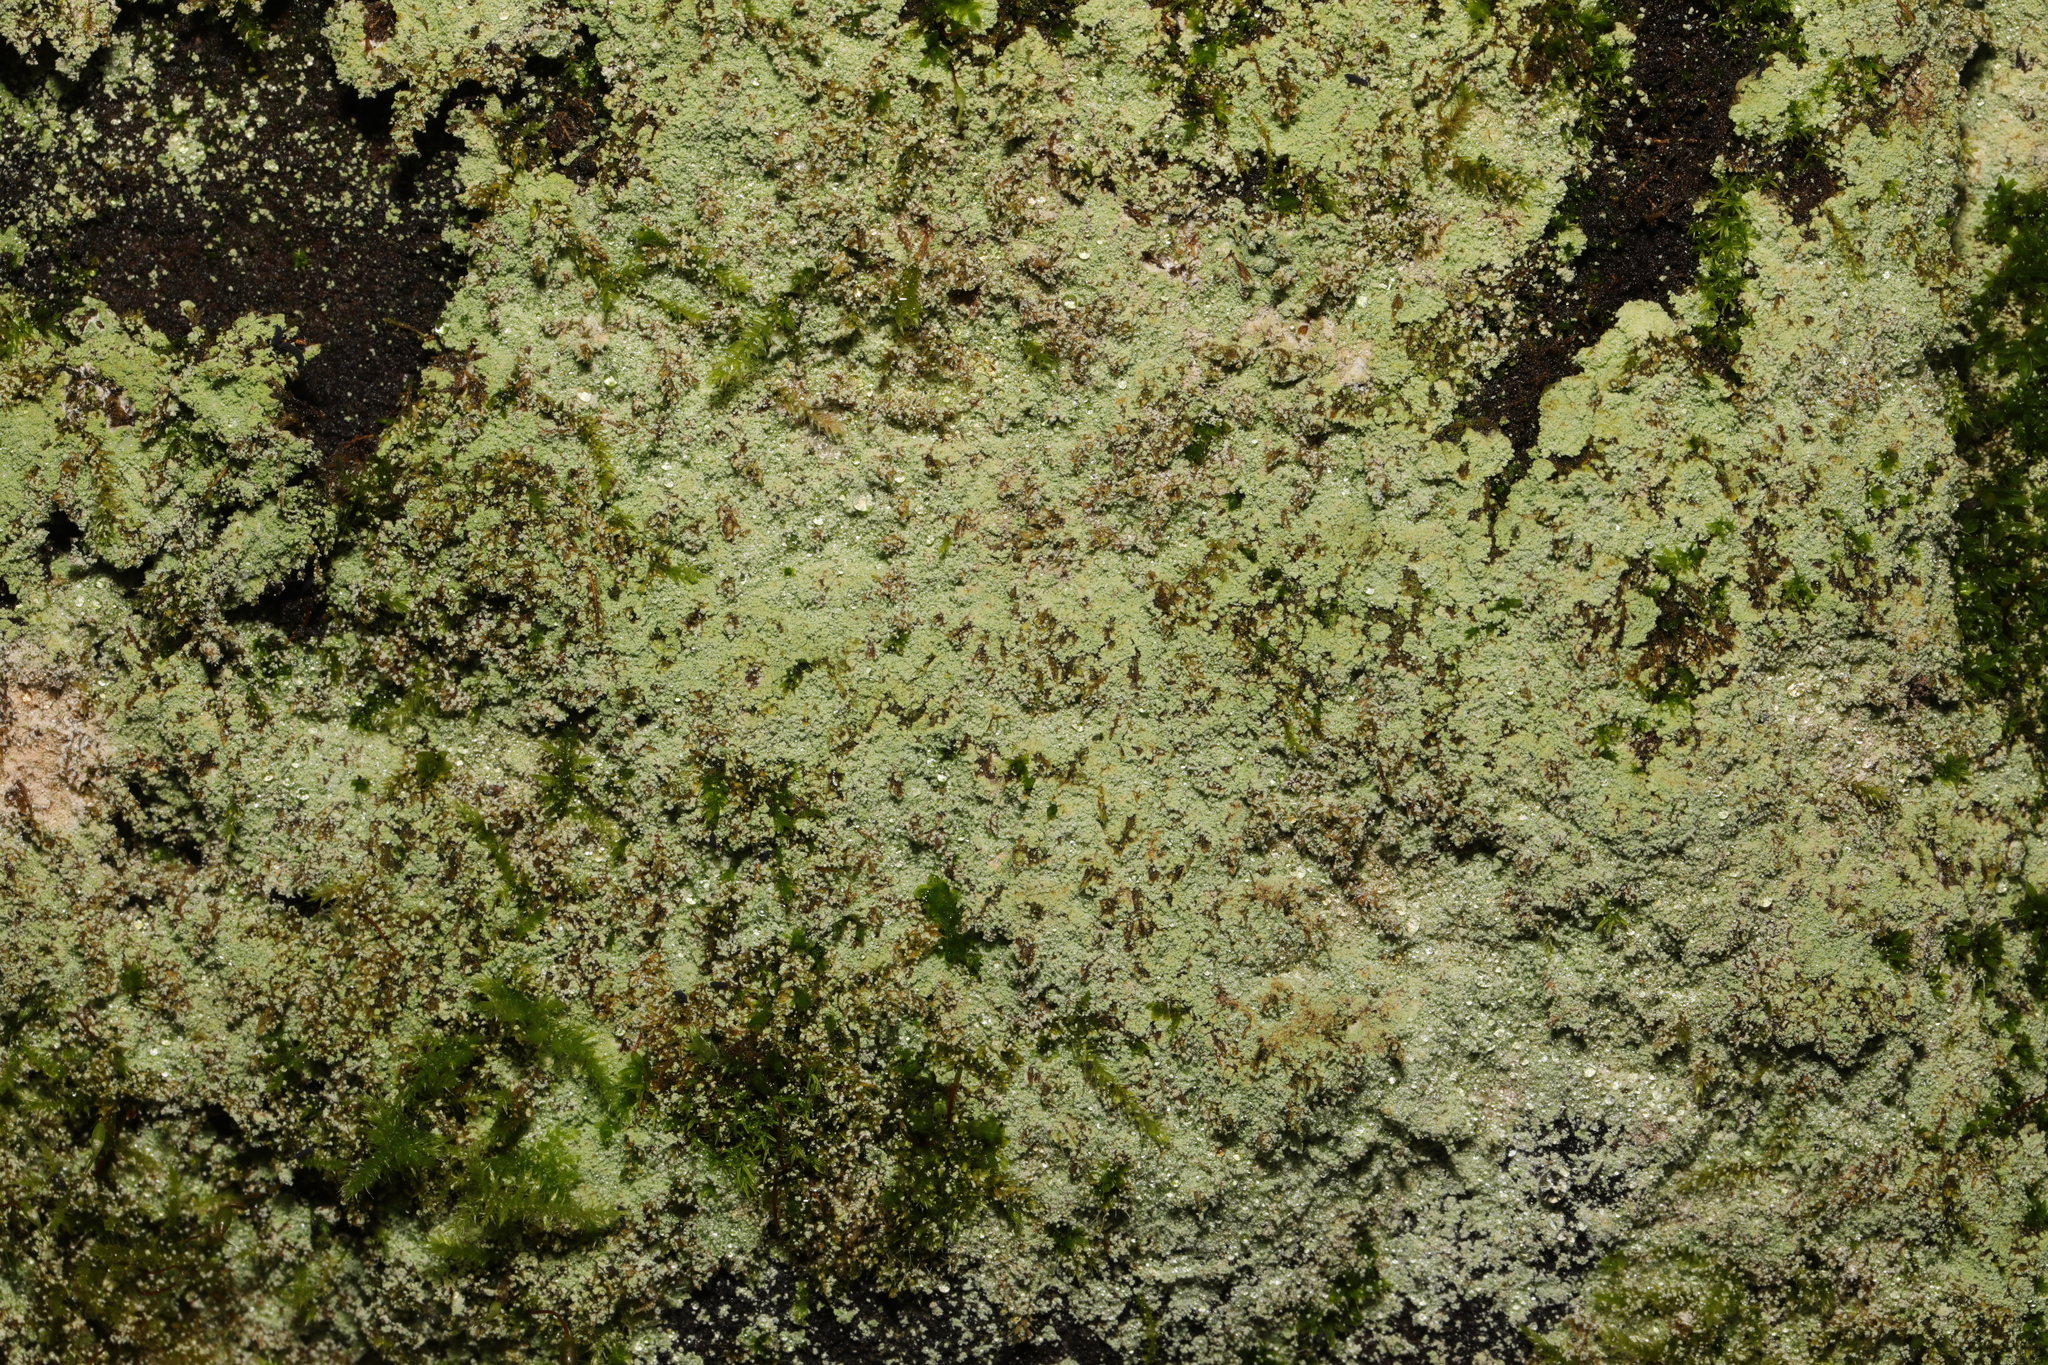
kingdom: Fungi
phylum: Ascomycota
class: Lecanoromycetes
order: Lecanorales
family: Stereocaulaceae
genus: Lepraria
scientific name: Lepraria
